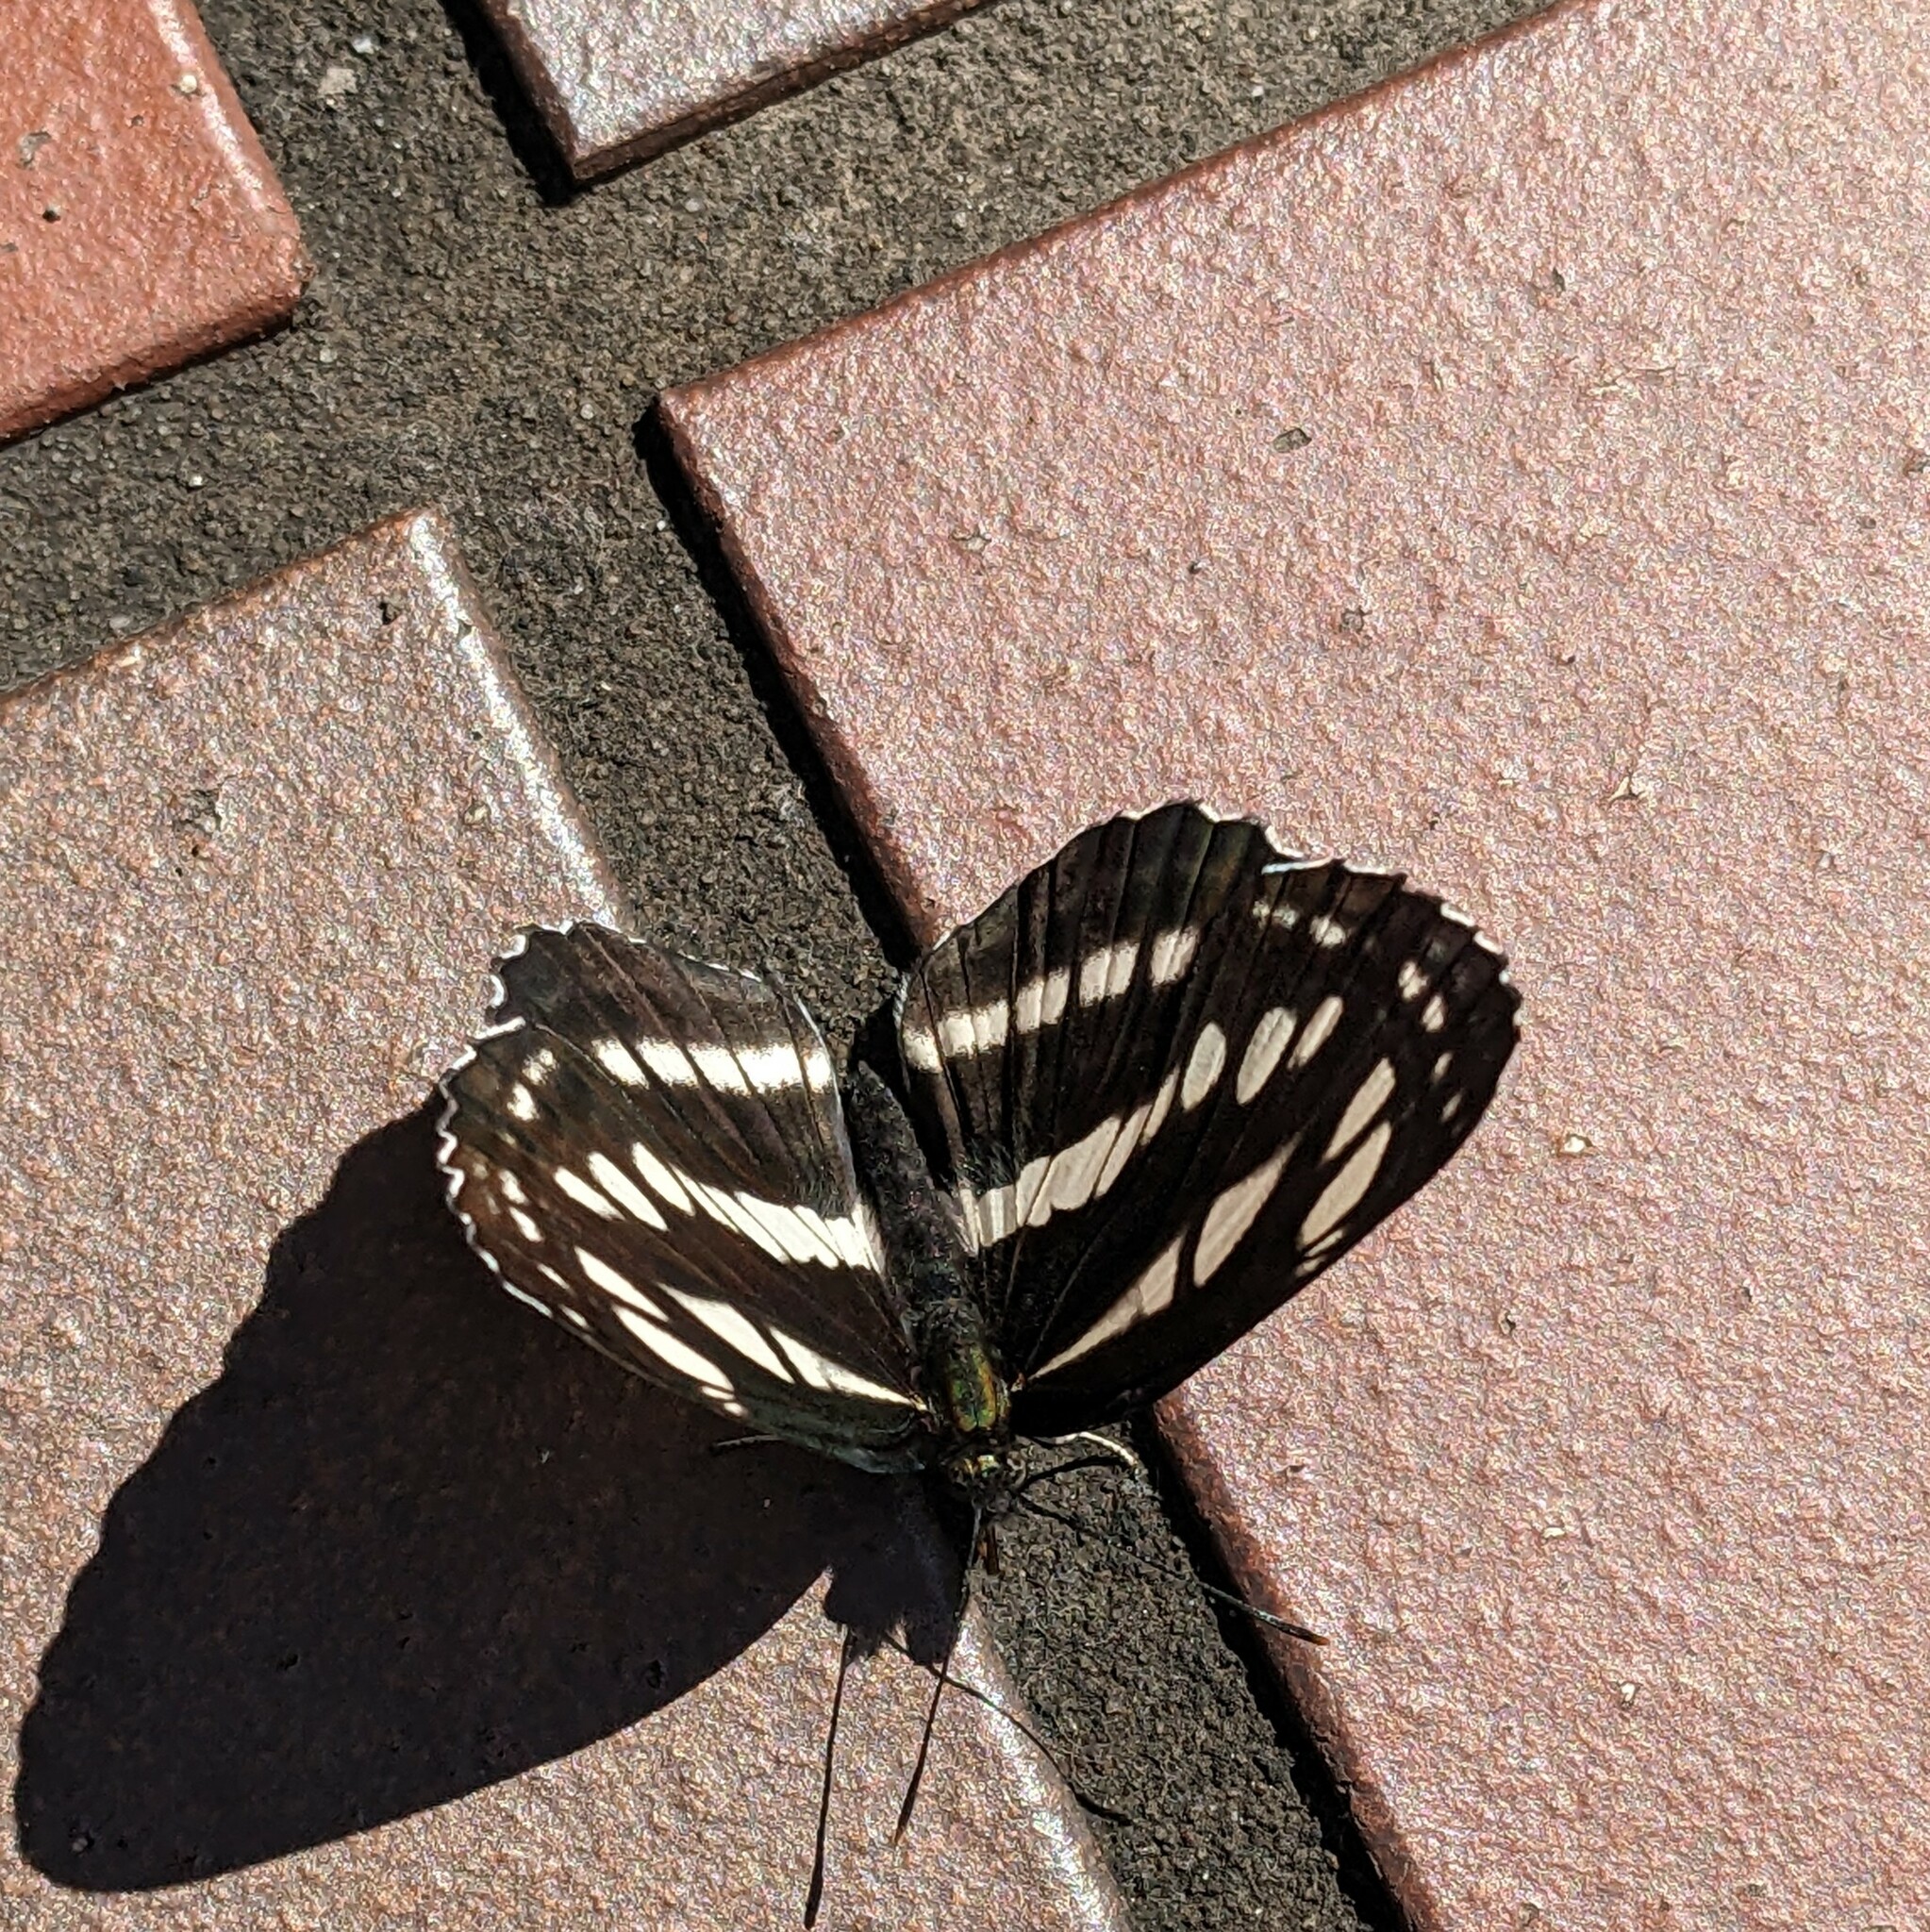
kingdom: Animalia
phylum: Arthropoda
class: Insecta
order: Lepidoptera
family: Nymphalidae
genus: Neptis
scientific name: Neptis sappho
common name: Common glider
